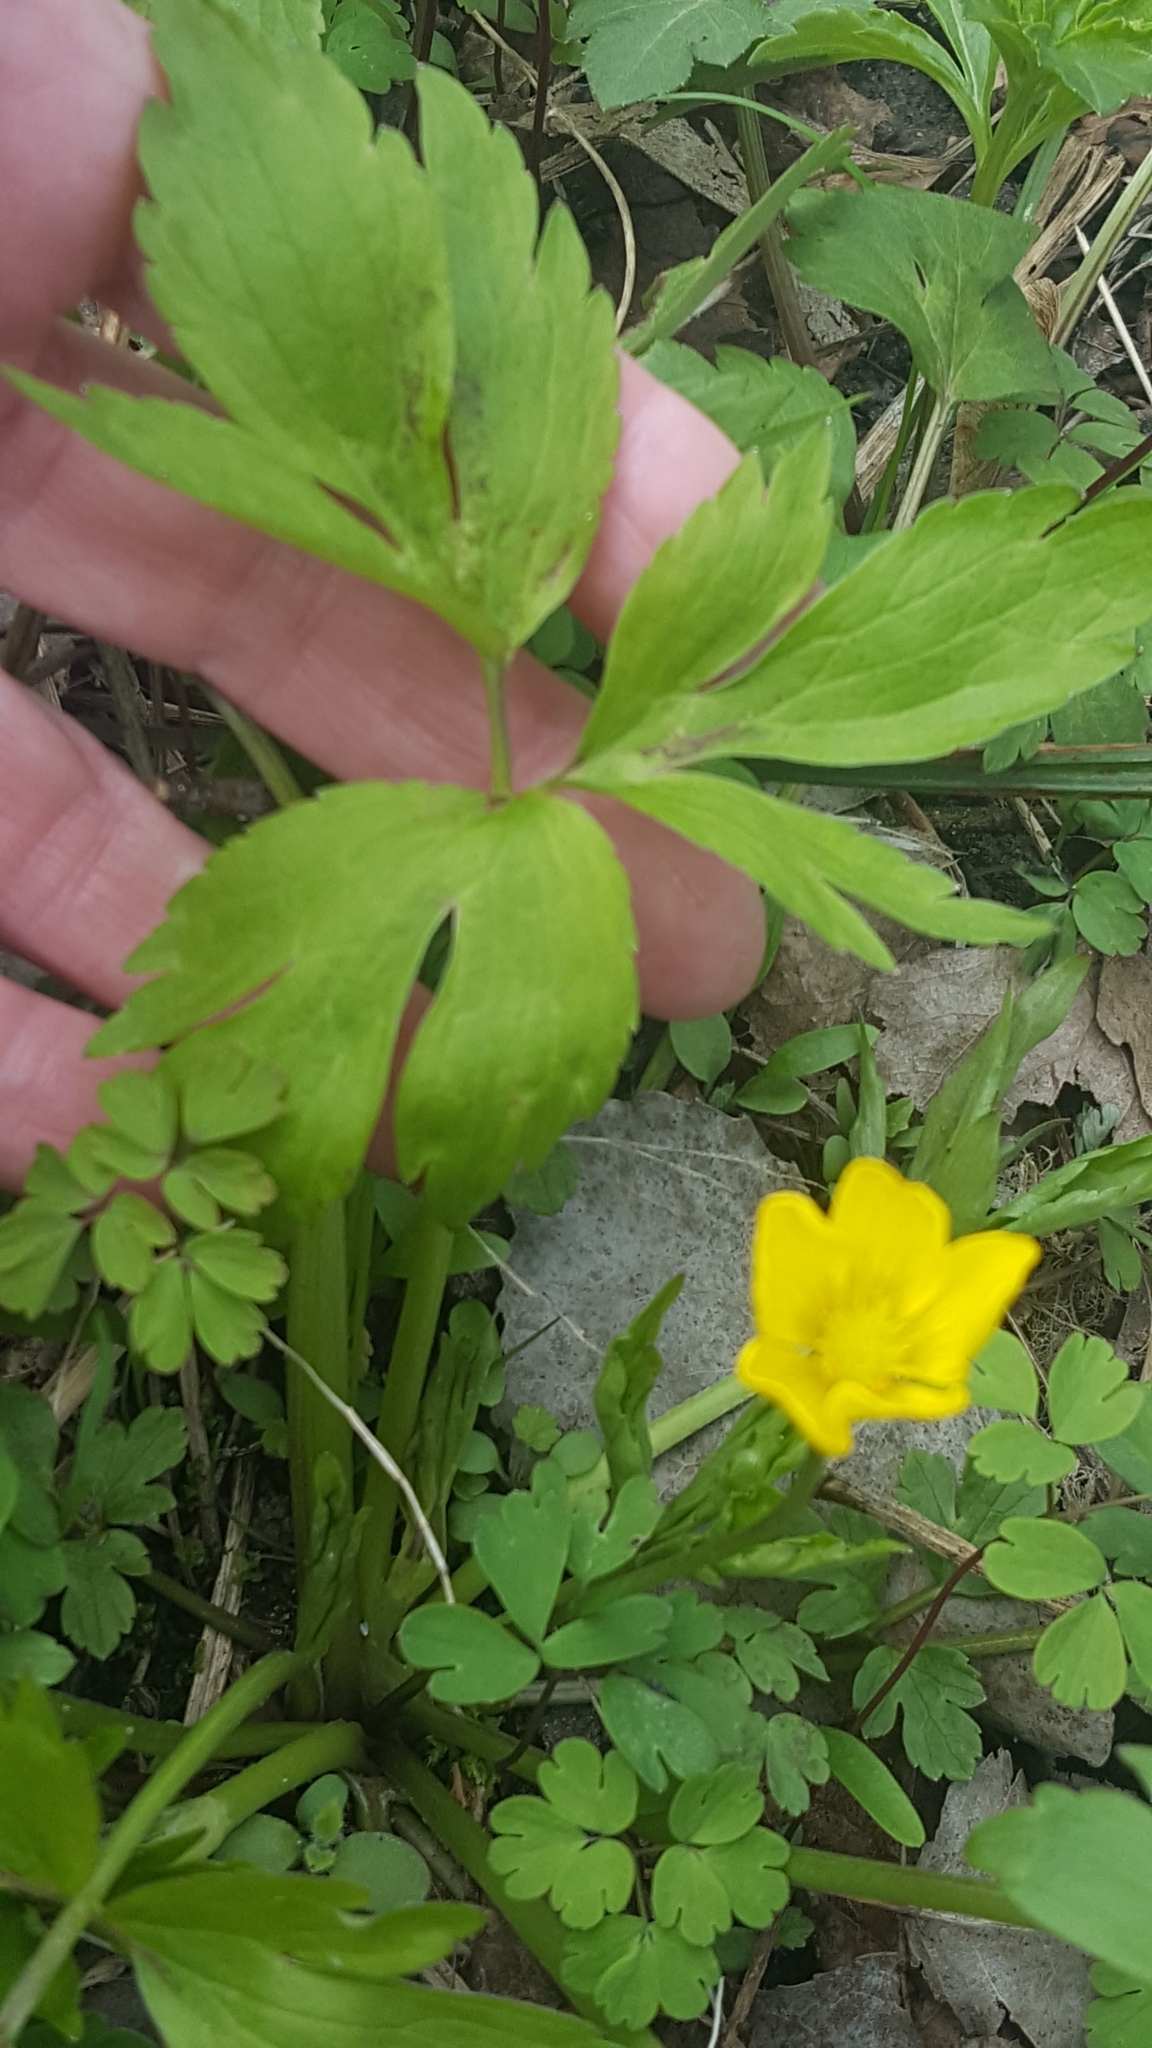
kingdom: Plantae
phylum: Tracheophyta
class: Magnoliopsida
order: Ranunculales
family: Ranunculaceae
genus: Ranunculus
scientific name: Ranunculus hispidus
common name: Bristly buttercup
